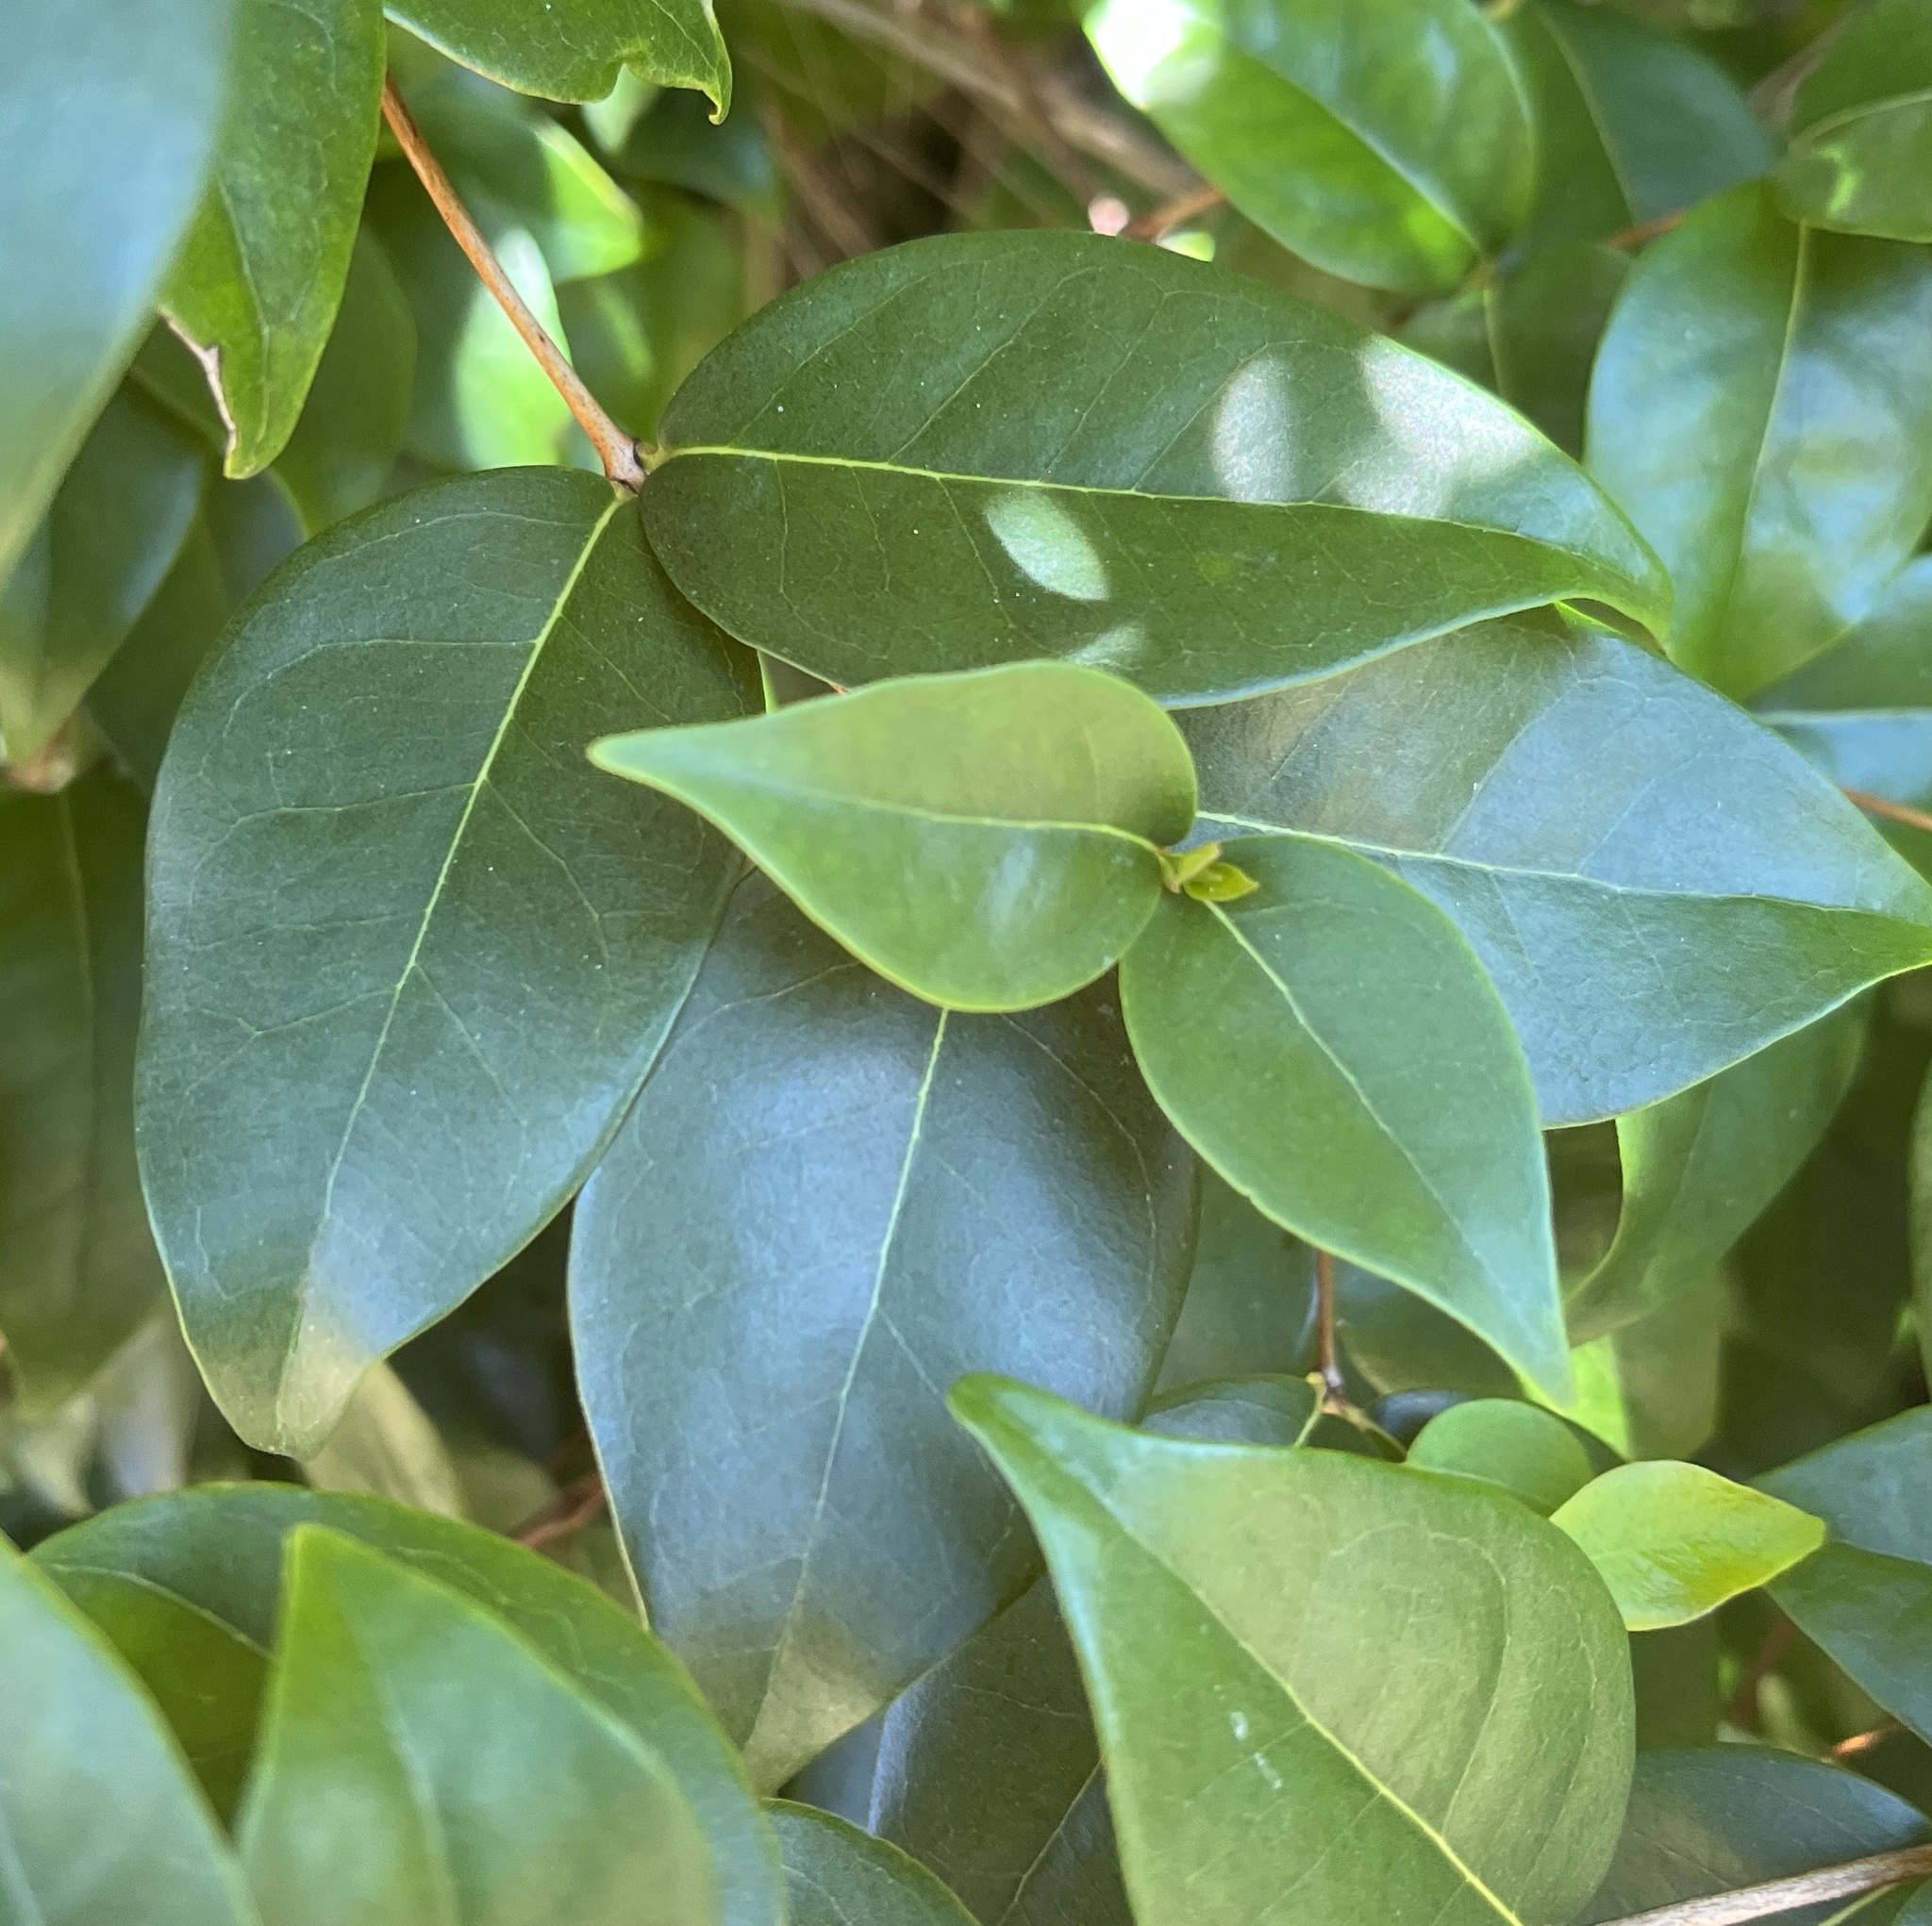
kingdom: Plantae
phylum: Tracheophyta
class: Magnoliopsida
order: Myrtales
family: Myrtaceae
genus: Eugenia
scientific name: Eugenia uniflora
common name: Surinam cherry
